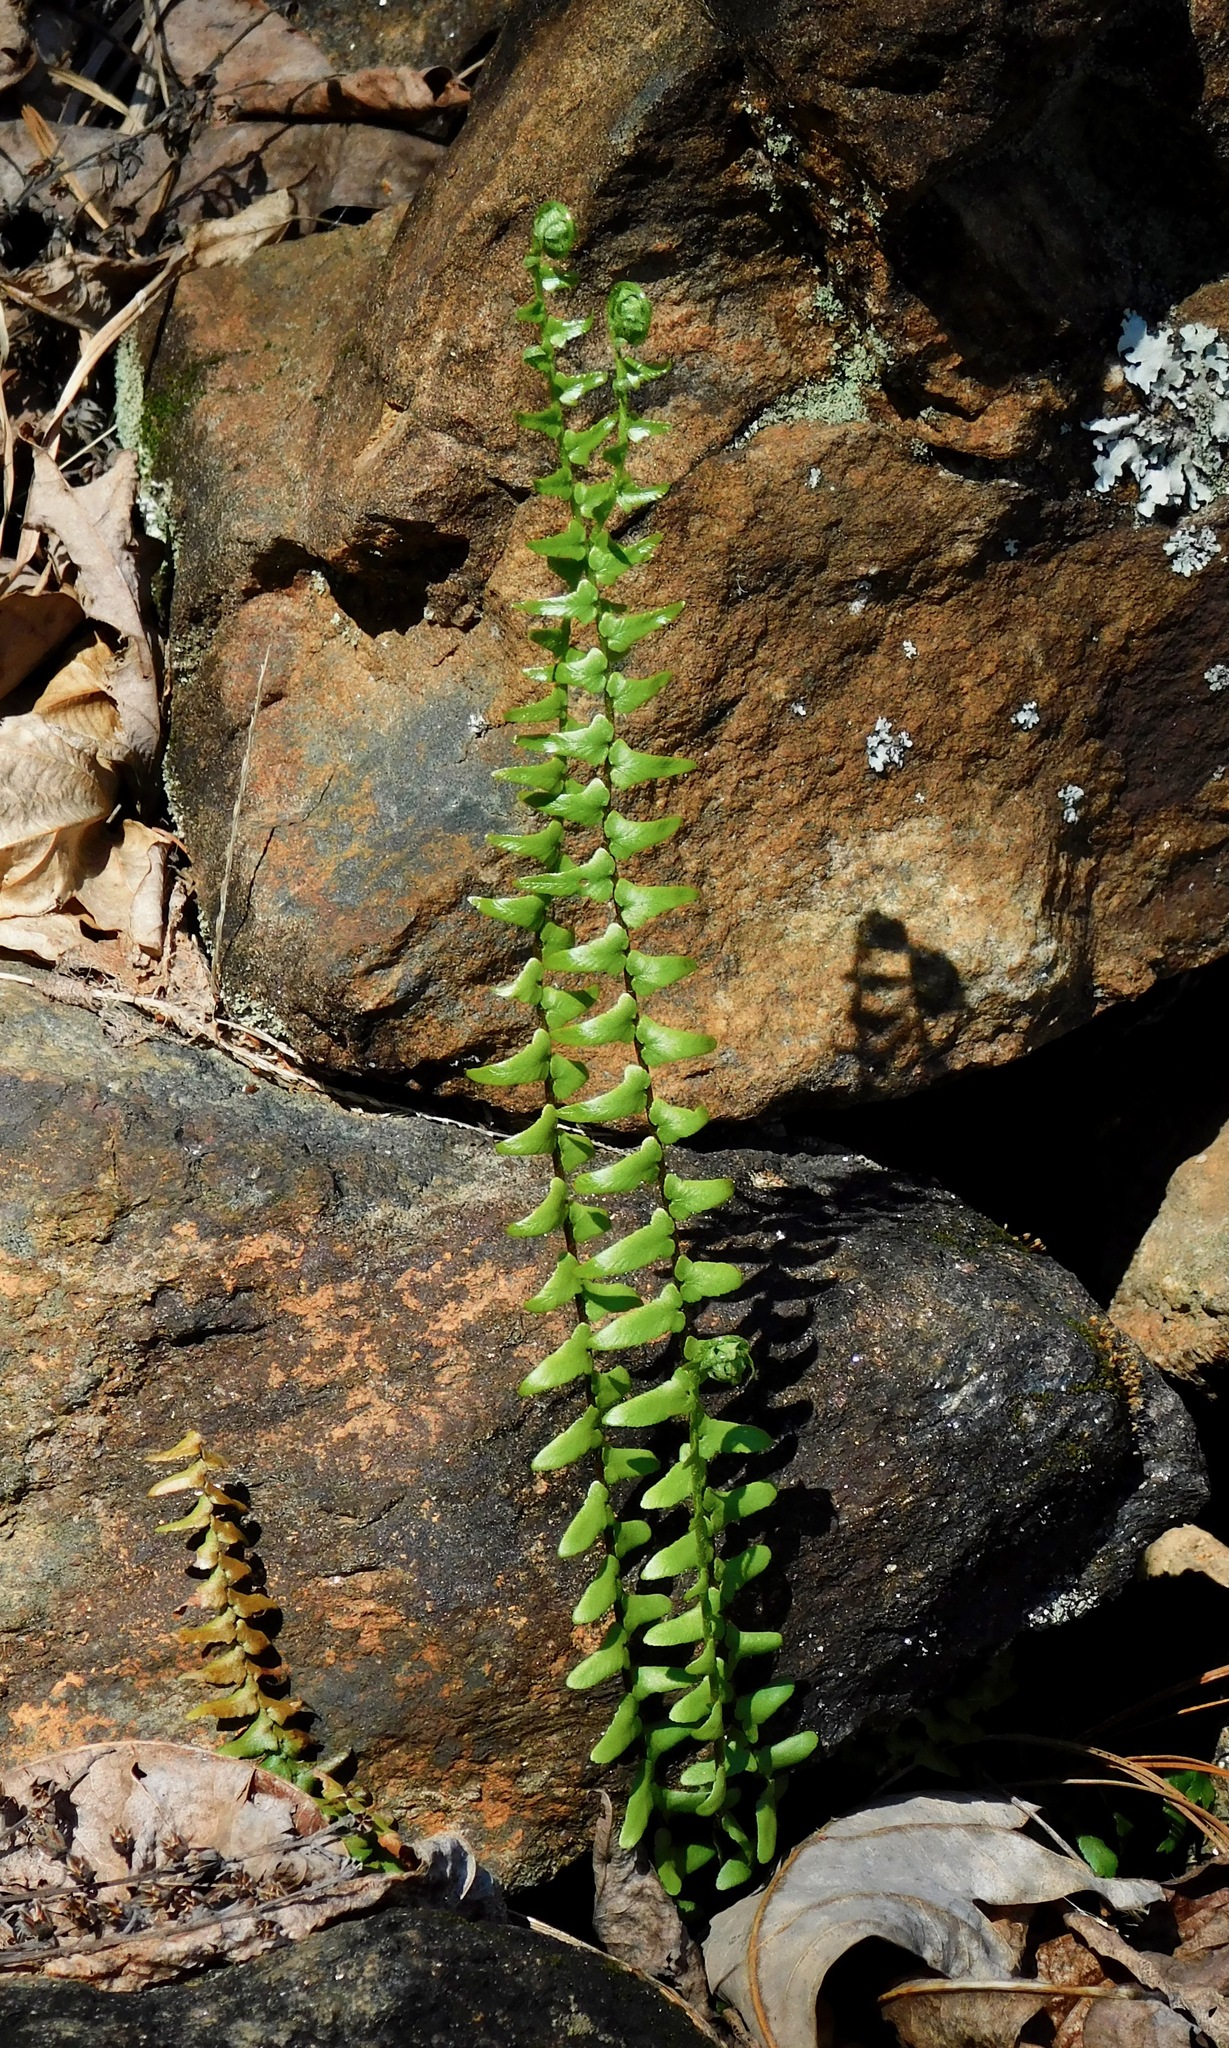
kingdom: Plantae
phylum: Tracheophyta
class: Polypodiopsida
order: Polypodiales
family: Aspleniaceae
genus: Asplenium
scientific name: Asplenium platyneuron
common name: Ebony spleenwort
